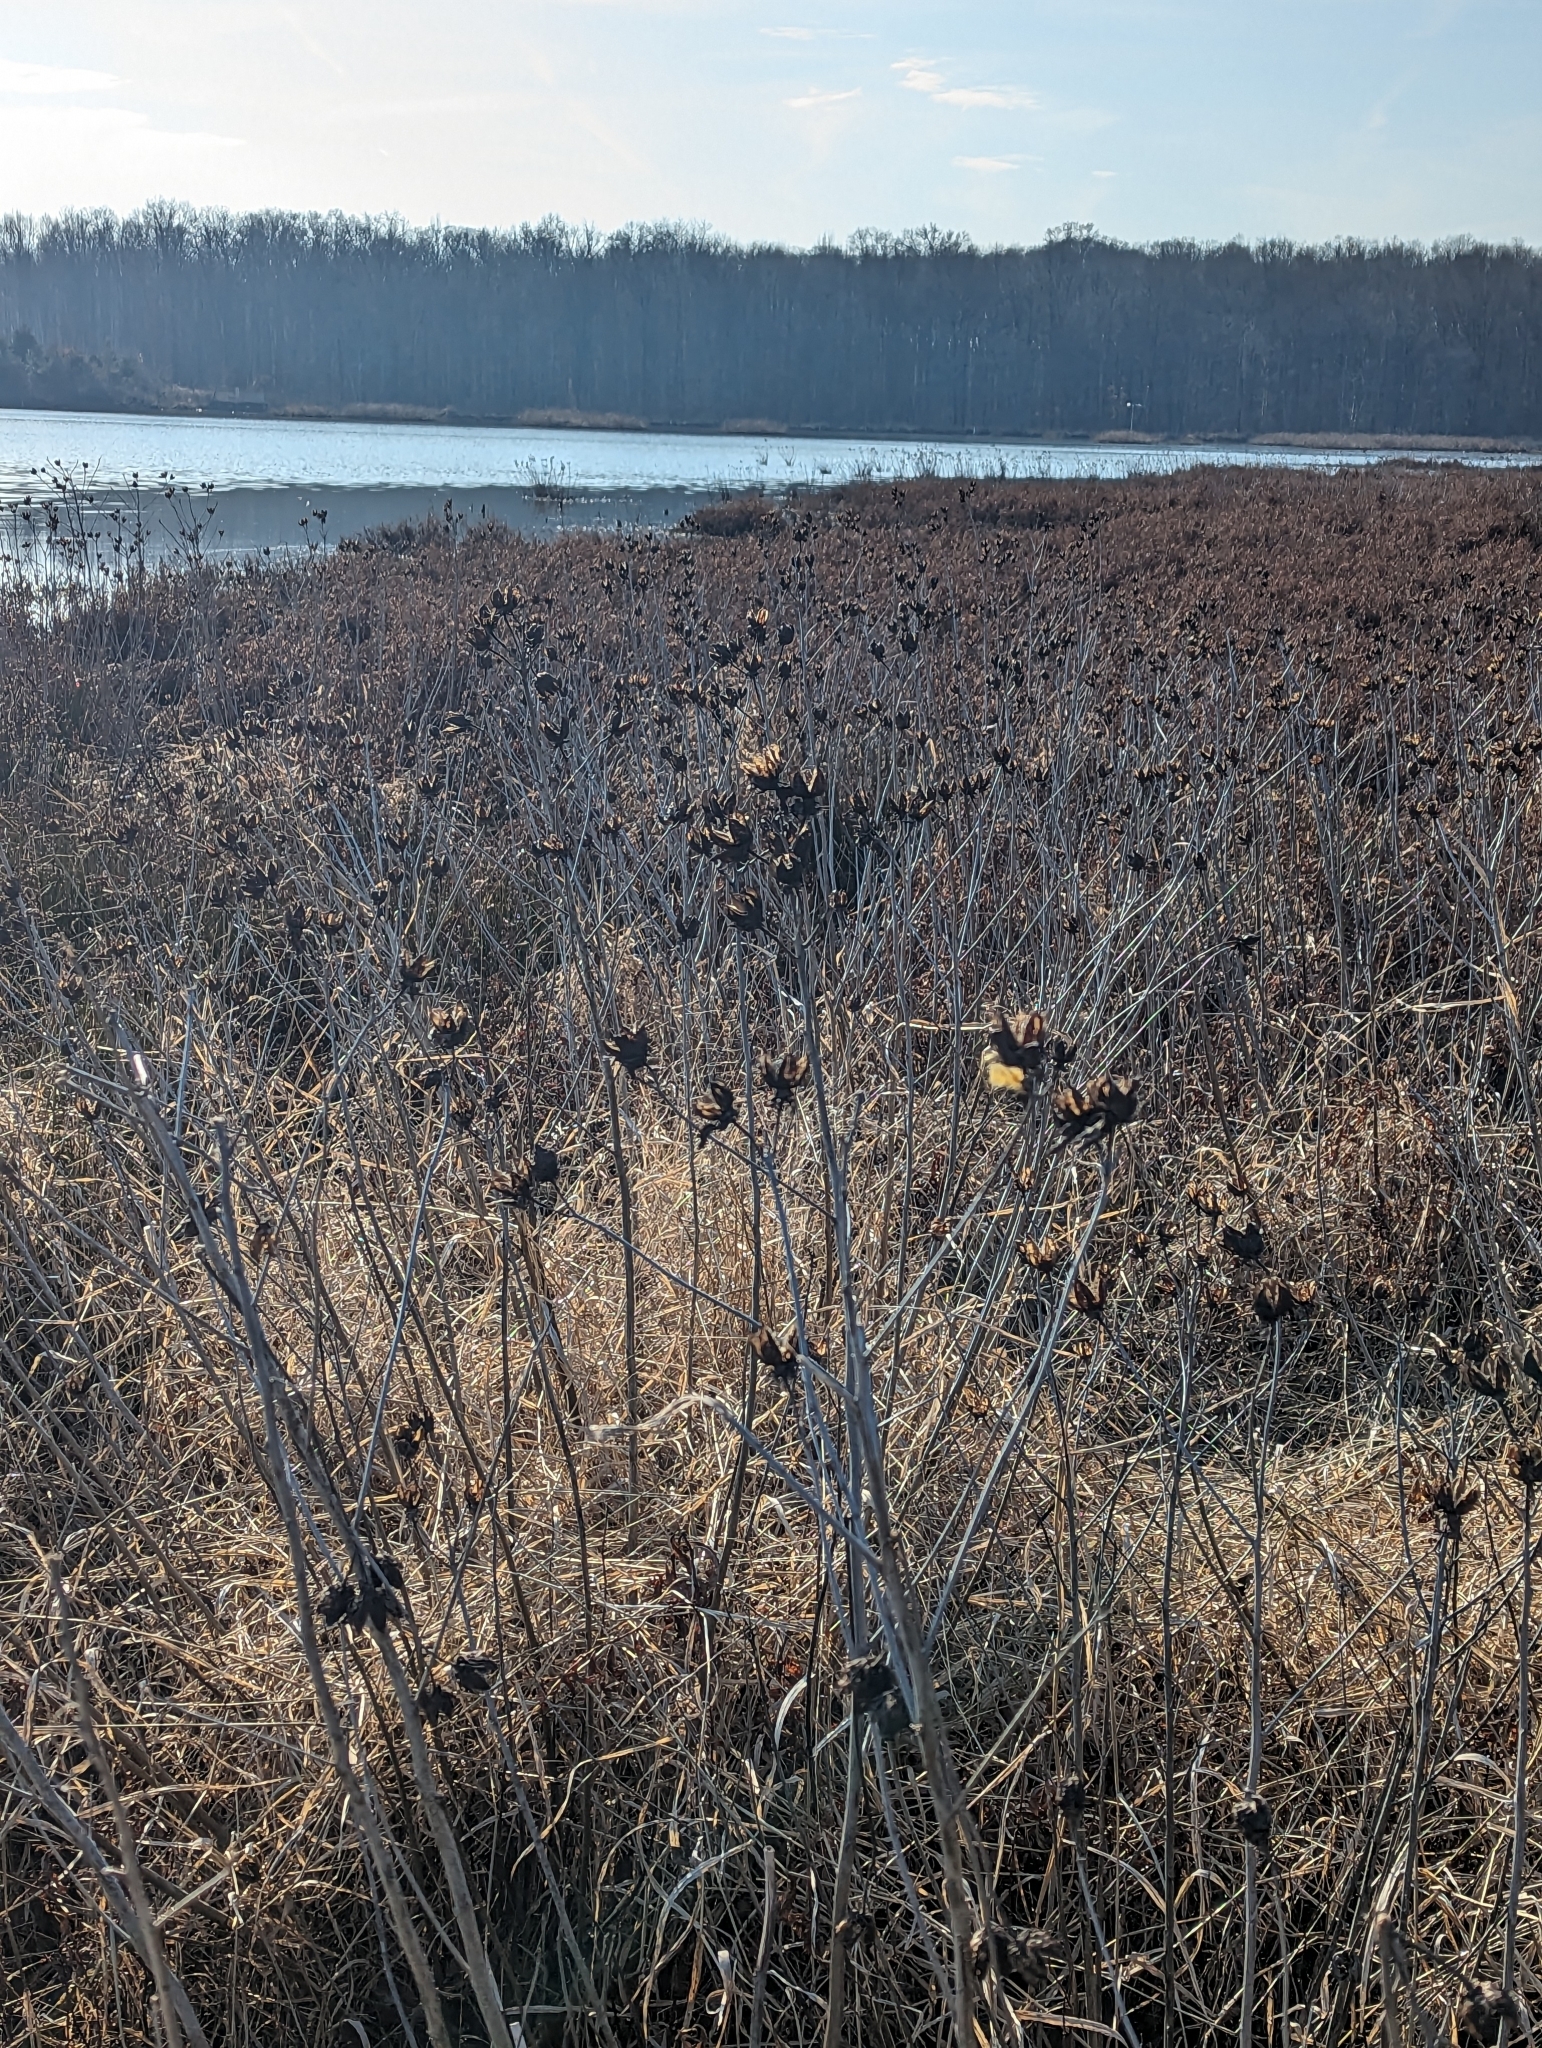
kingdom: Plantae
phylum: Tracheophyta
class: Magnoliopsida
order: Malvales
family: Malvaceae
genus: Hibiscus
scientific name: Hibiscus moscheutos
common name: Common rose-mallow
